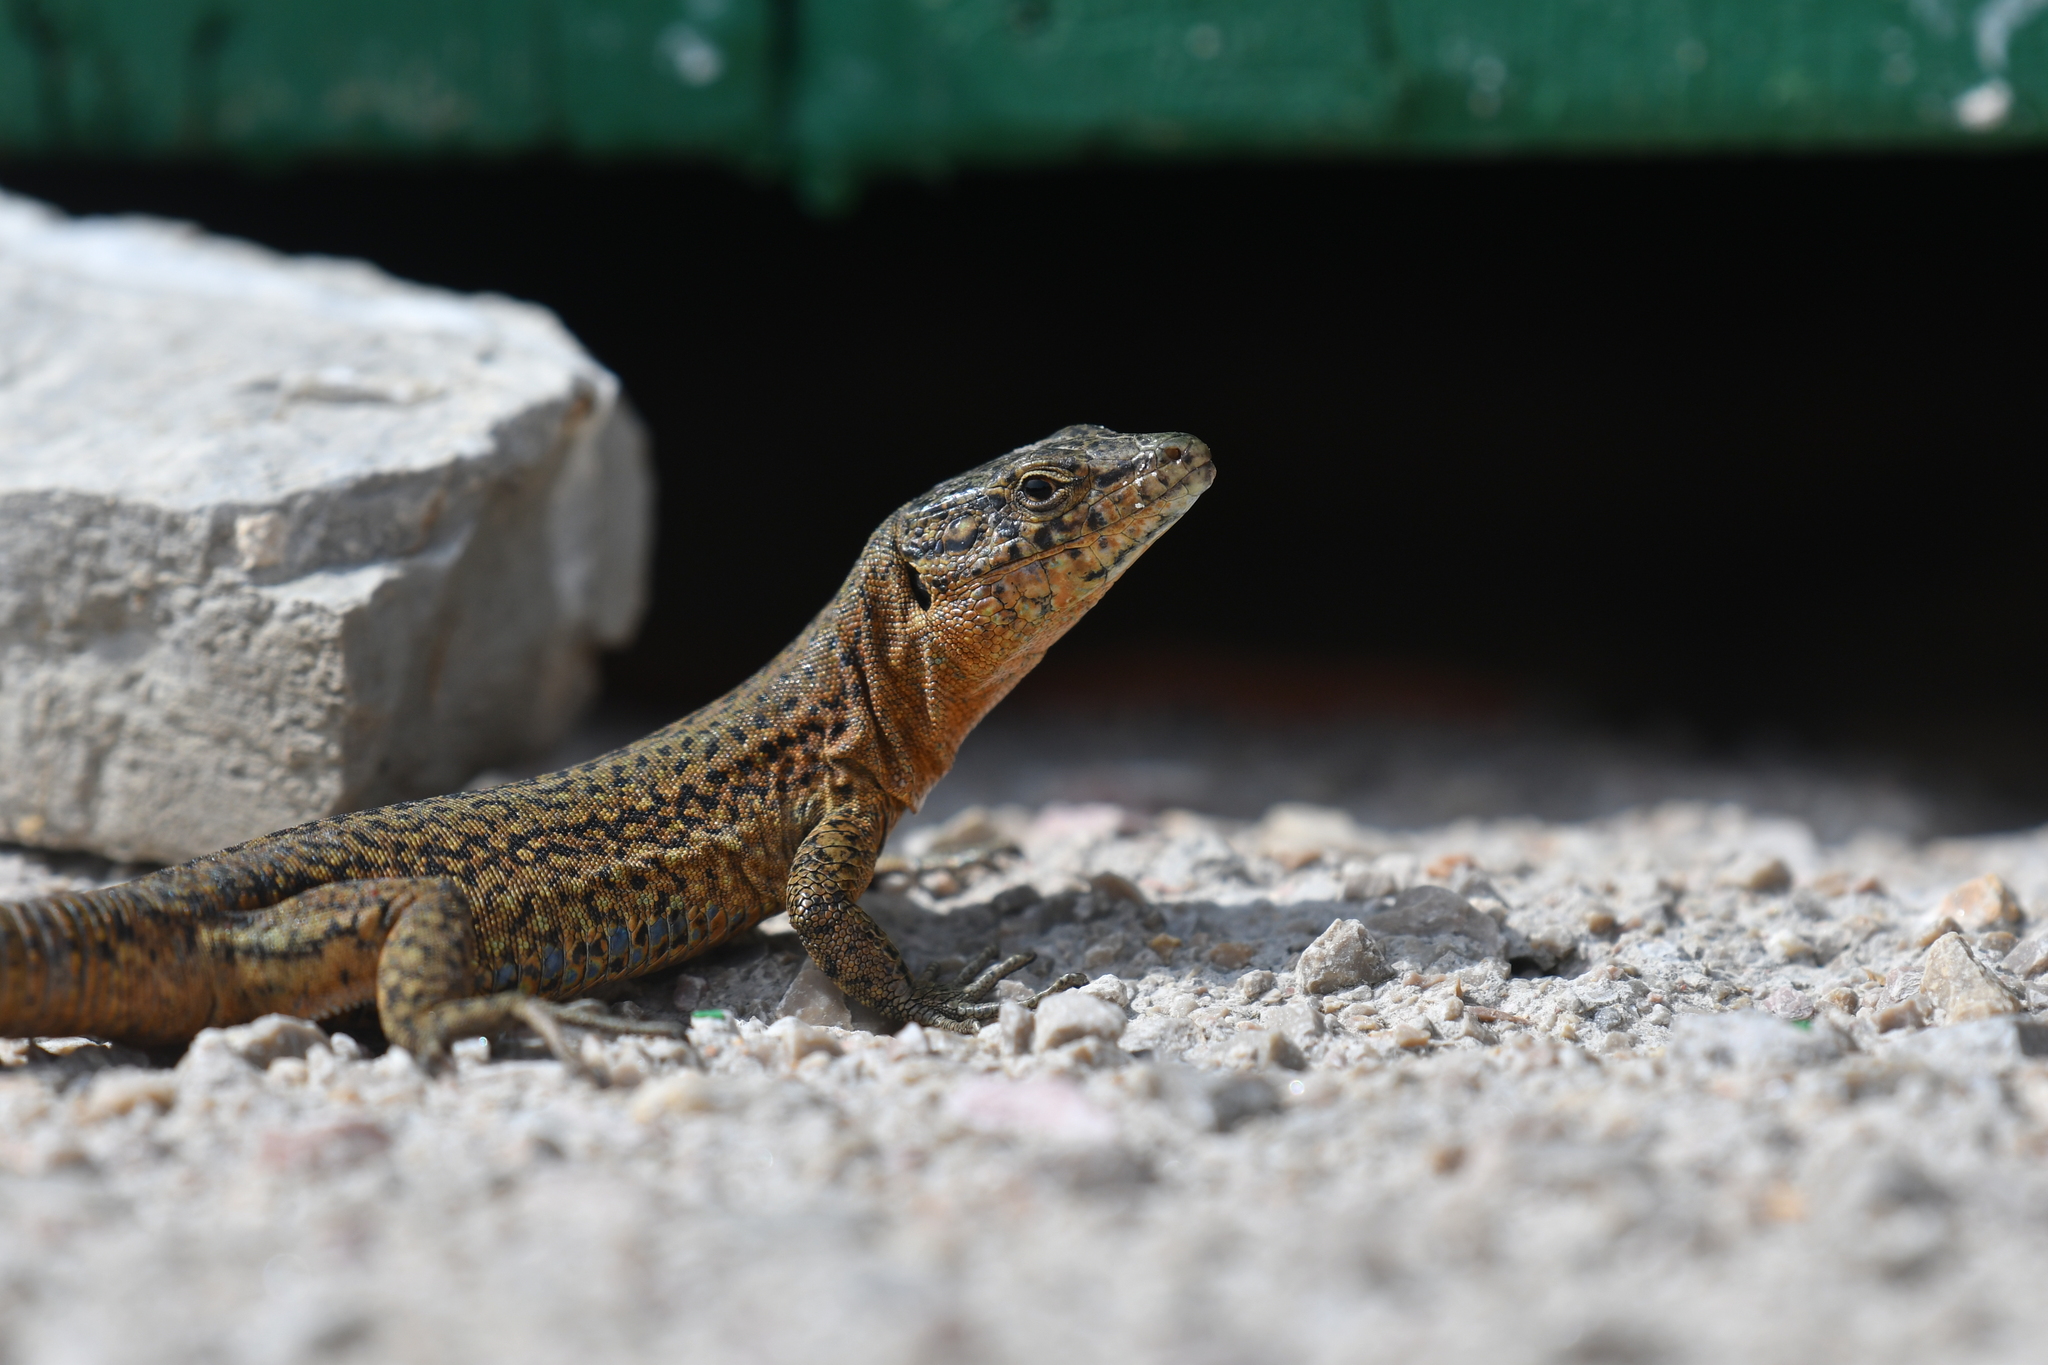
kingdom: Animalia
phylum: Chordata
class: Squamata
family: Lacertidae
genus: Podarcis
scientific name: Podarcis lilfordi
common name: Belearic lizard
